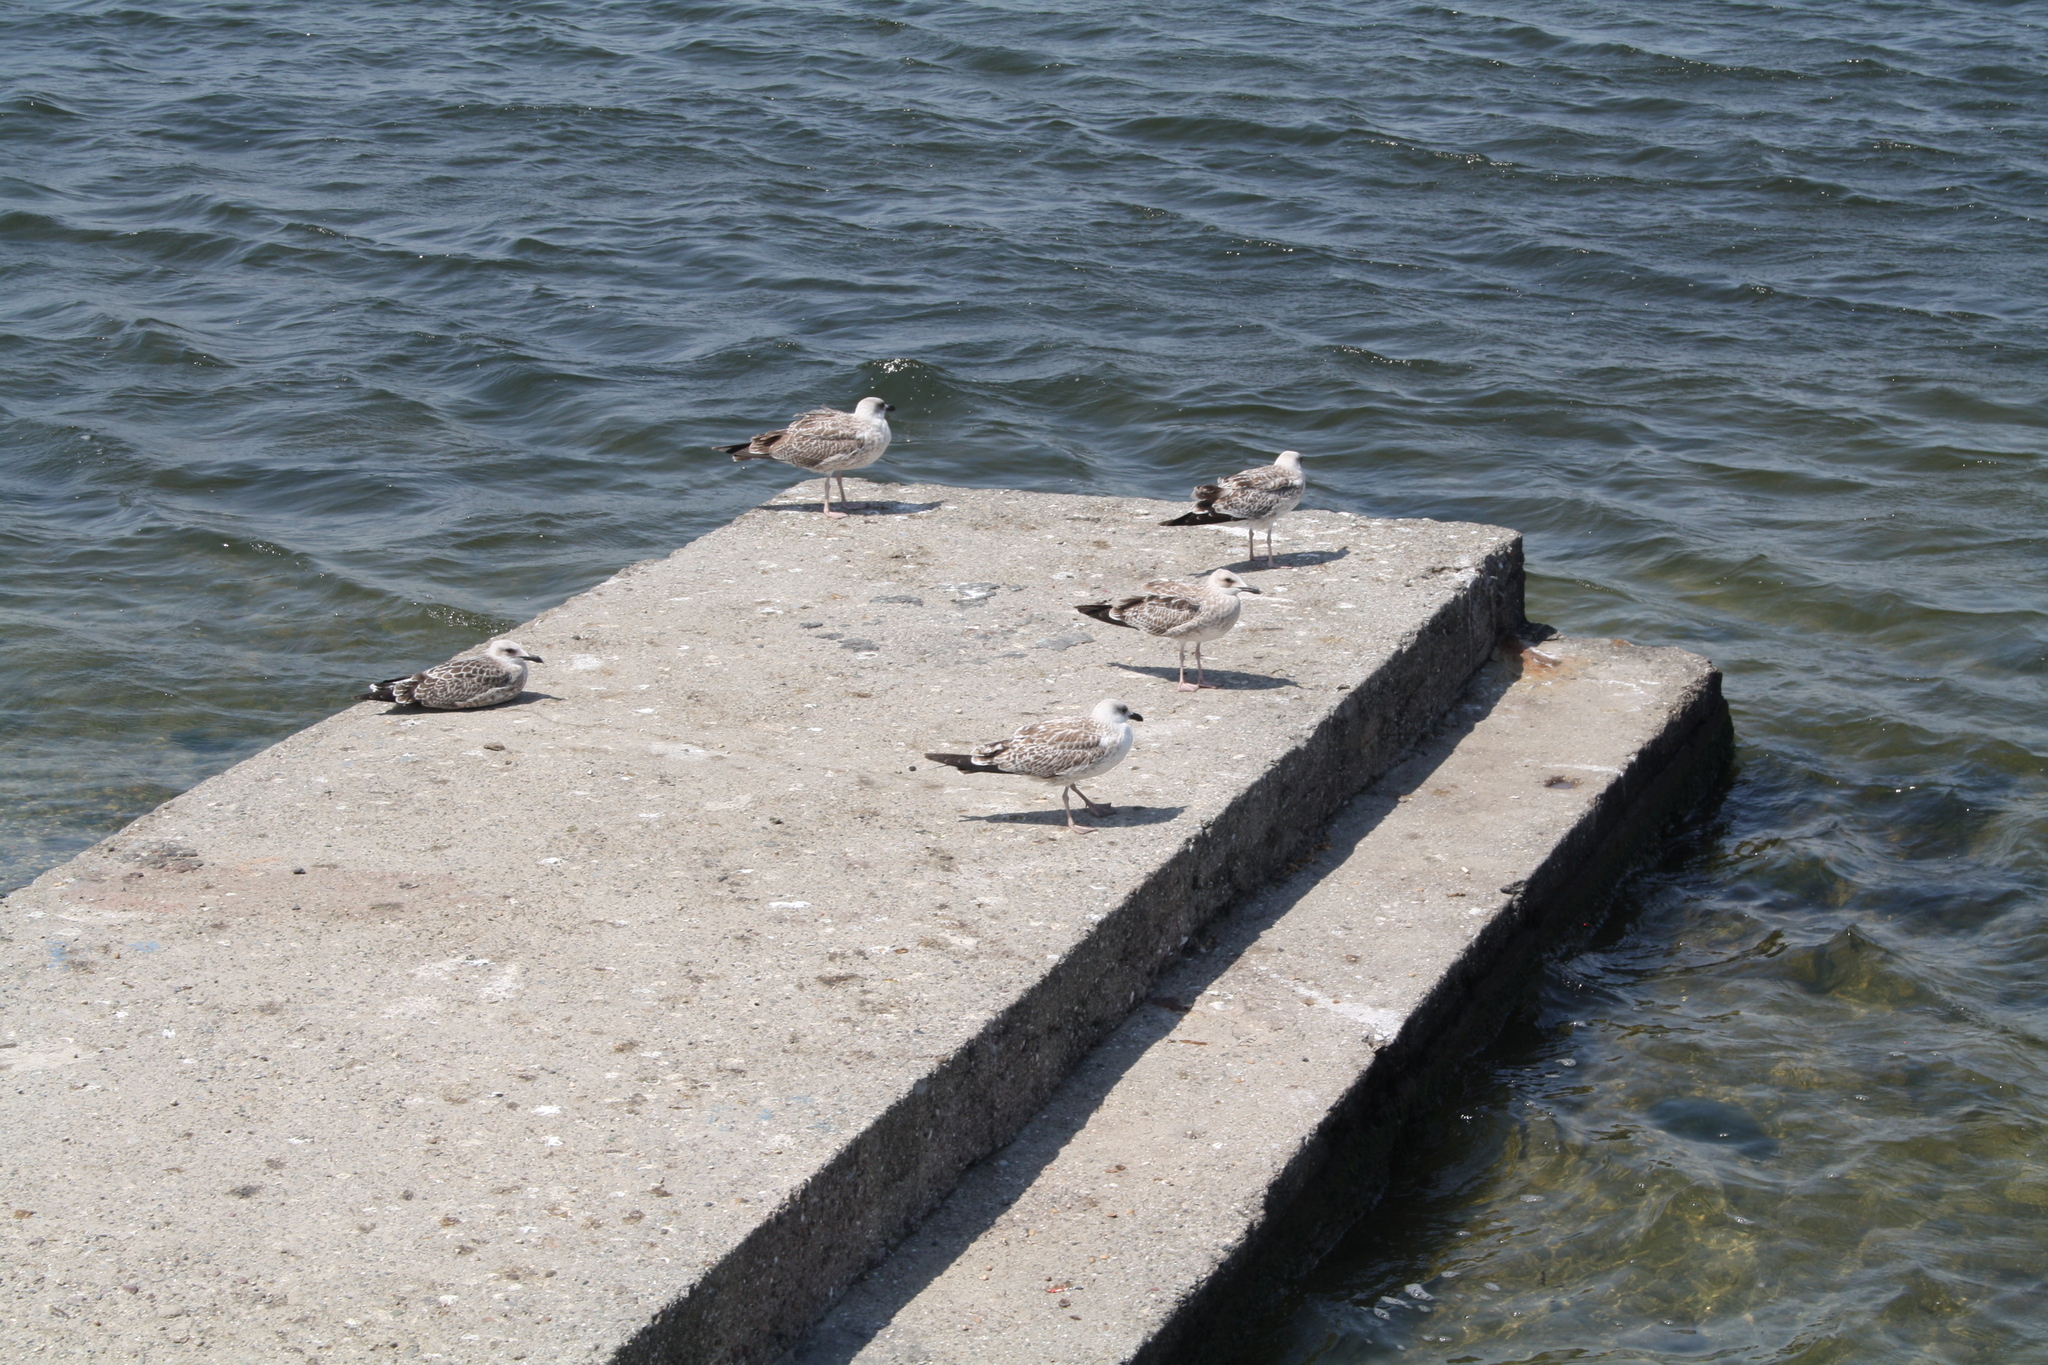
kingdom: Animalia
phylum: Chordata
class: Aves
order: Charadriiformes
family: Laridae
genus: Larus
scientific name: Larus michahellis
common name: Yellow-legged gull
